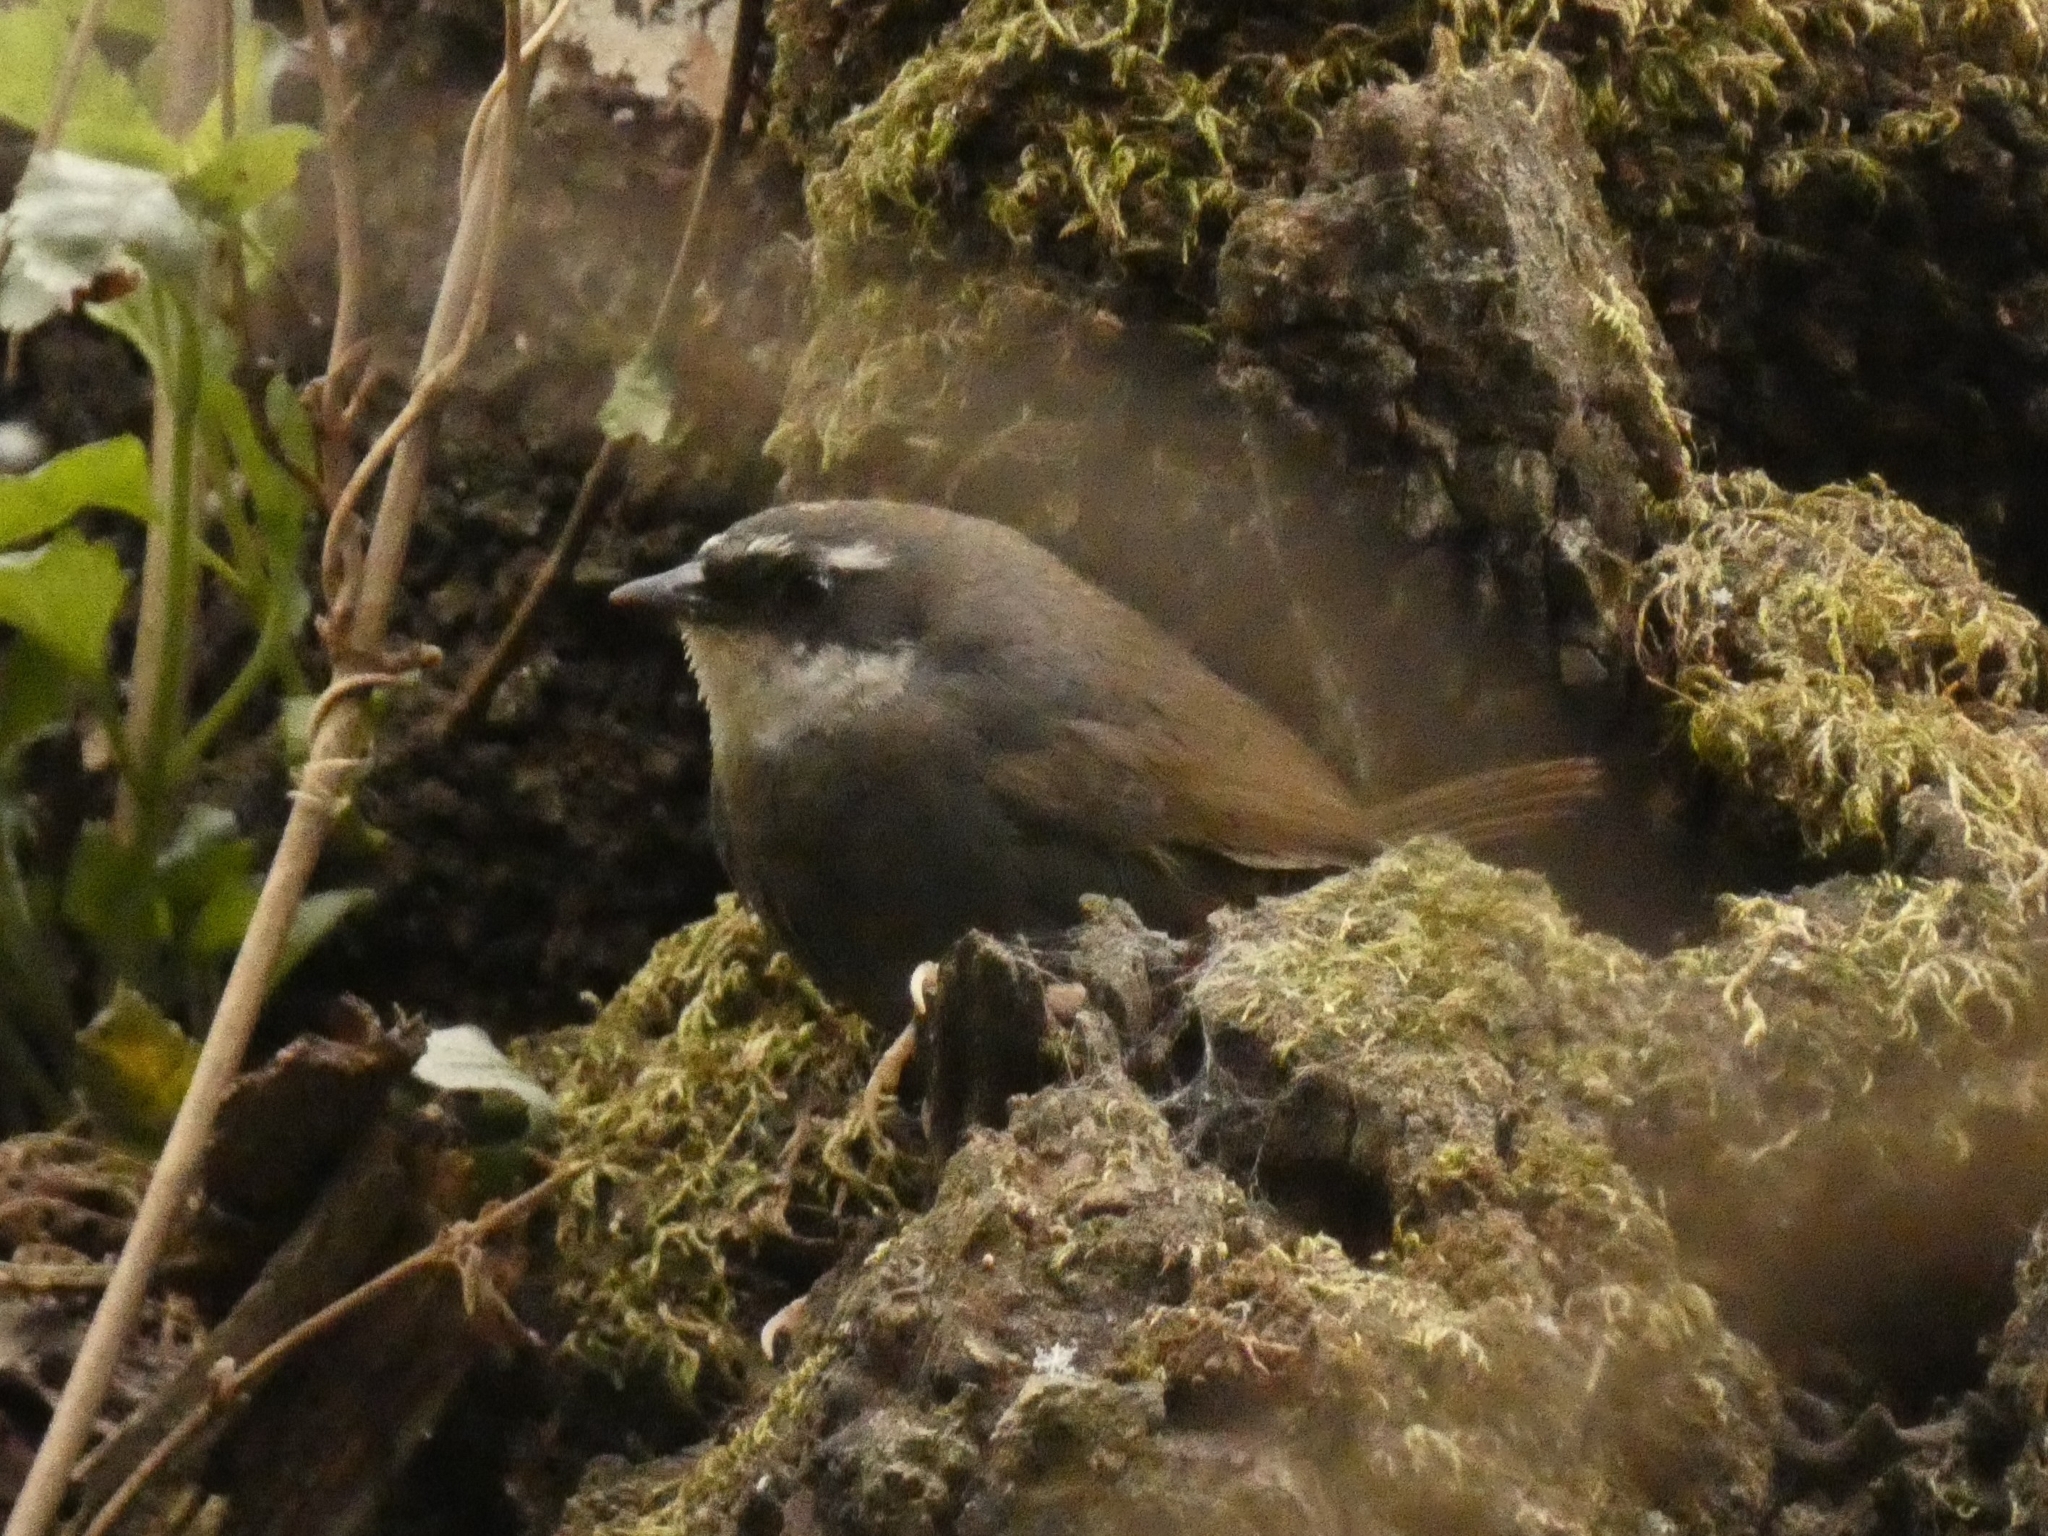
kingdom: Animalia
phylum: Chordata
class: Aves
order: Passeriformes
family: Rhinocryptidae
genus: Scytalopus
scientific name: Scytalopus superciliaris
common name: White-browed tapaculo
